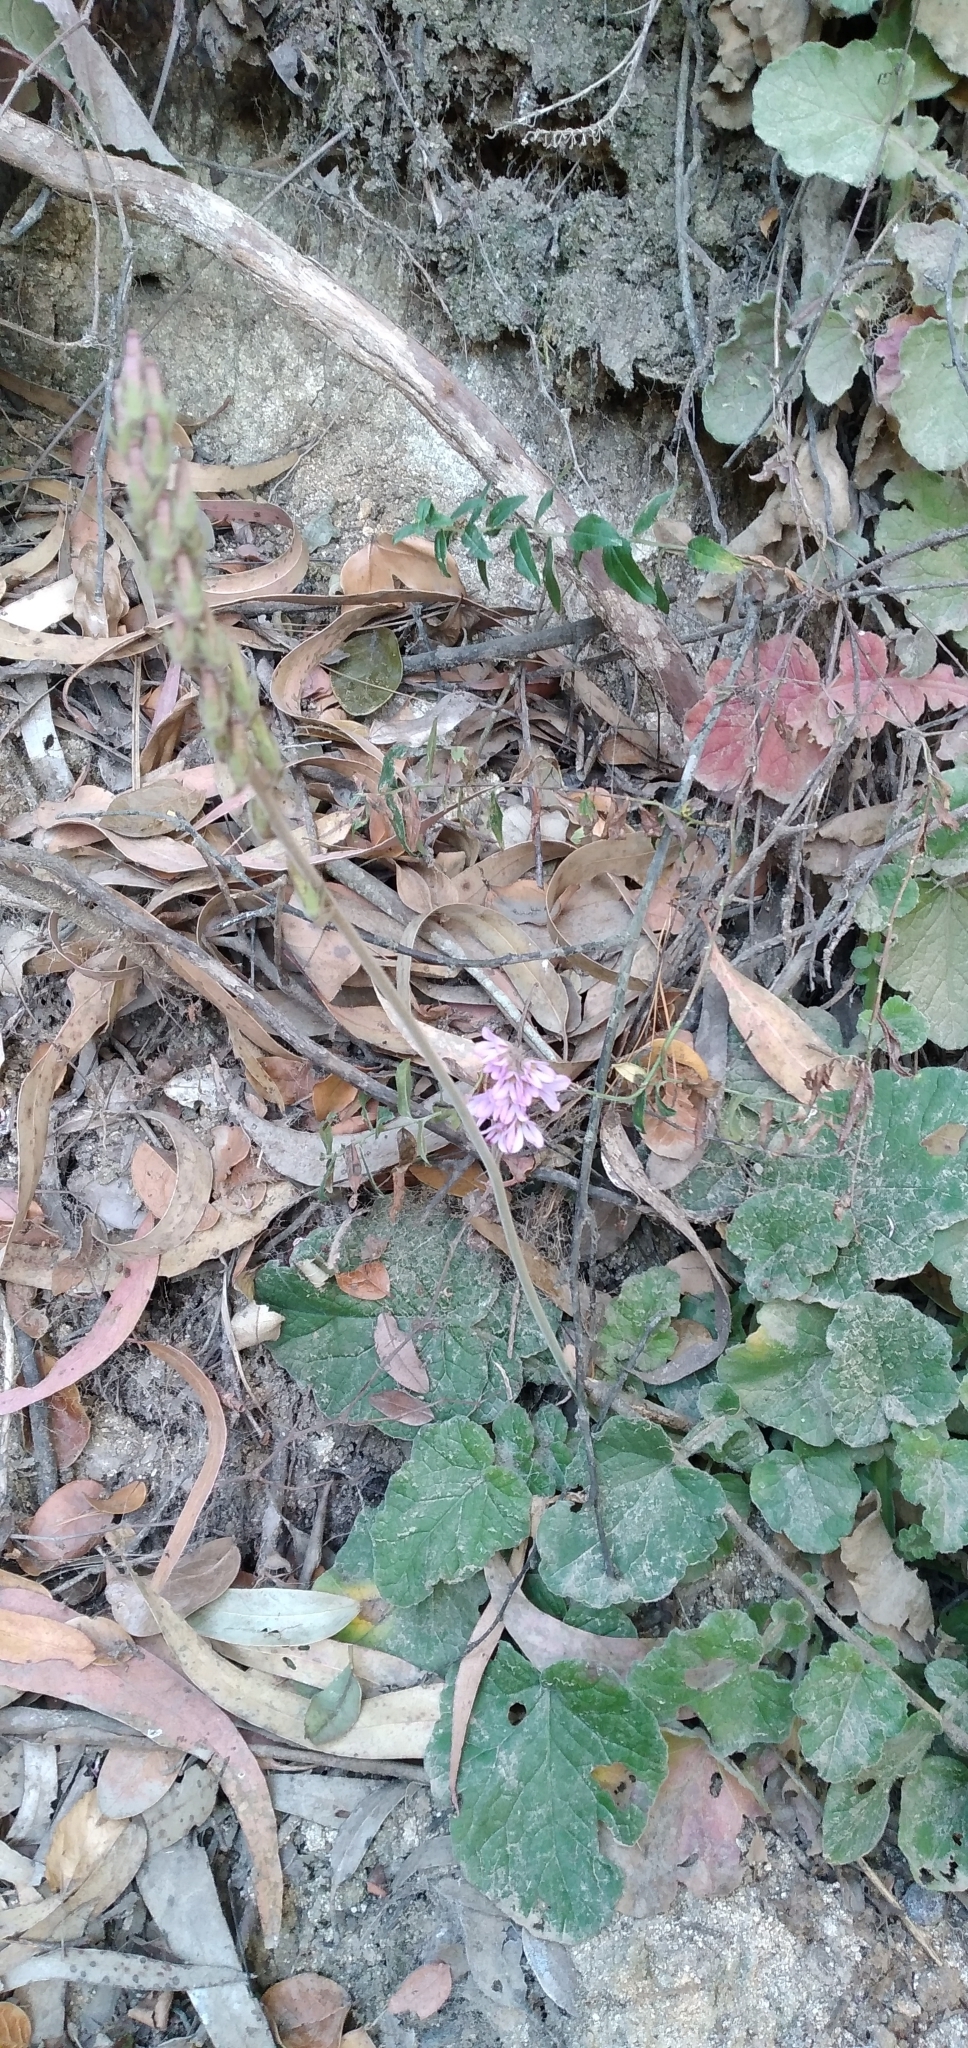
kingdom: Plantae
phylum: Tracheophyta
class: Magnoliopsida
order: Geraniales
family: Francoaceae
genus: Francoa
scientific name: Francoa appendiculata
